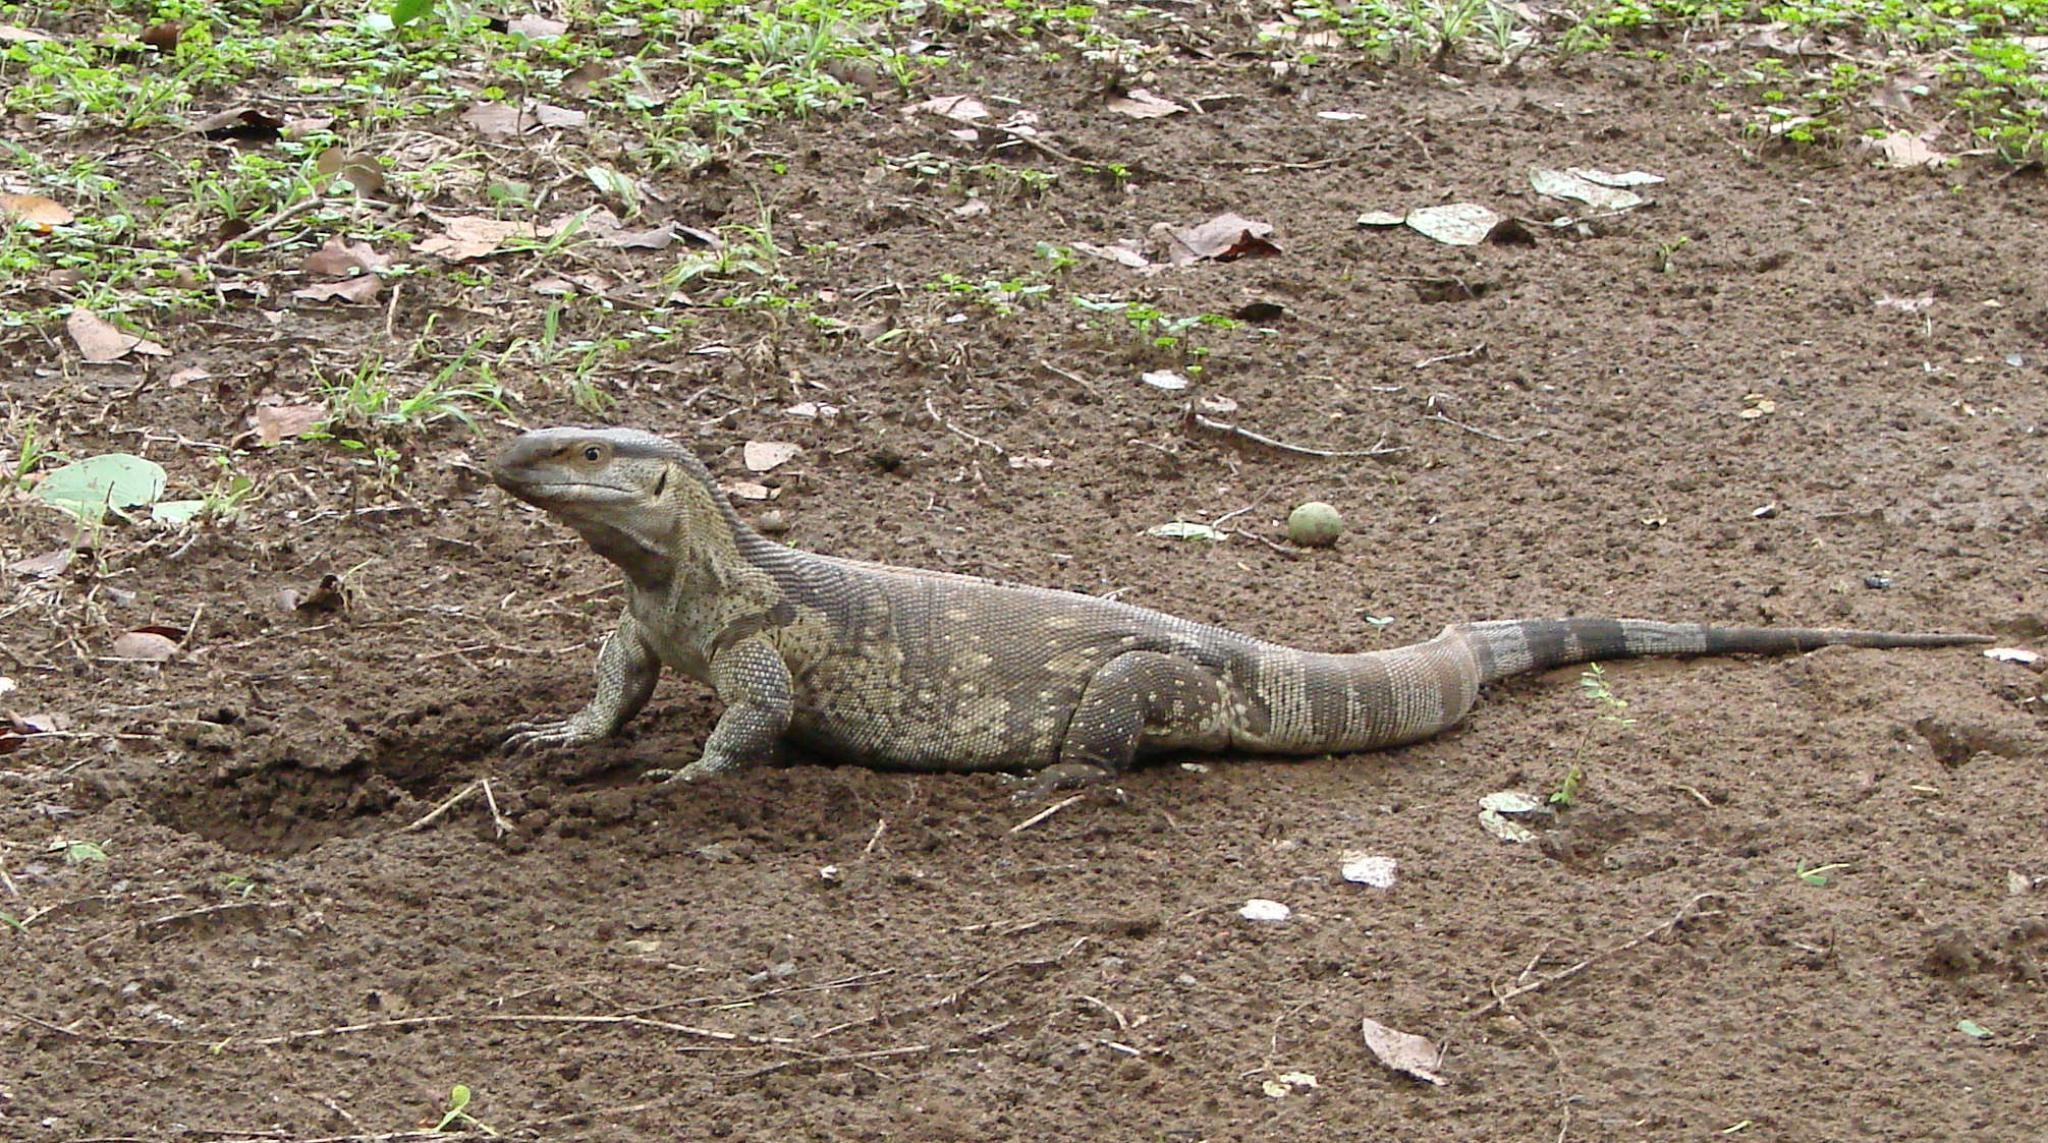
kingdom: Animalia
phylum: Chordata
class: Squamata
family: Varanidae
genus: Varanus
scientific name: Varanus albigularis
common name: White-throated monitor
